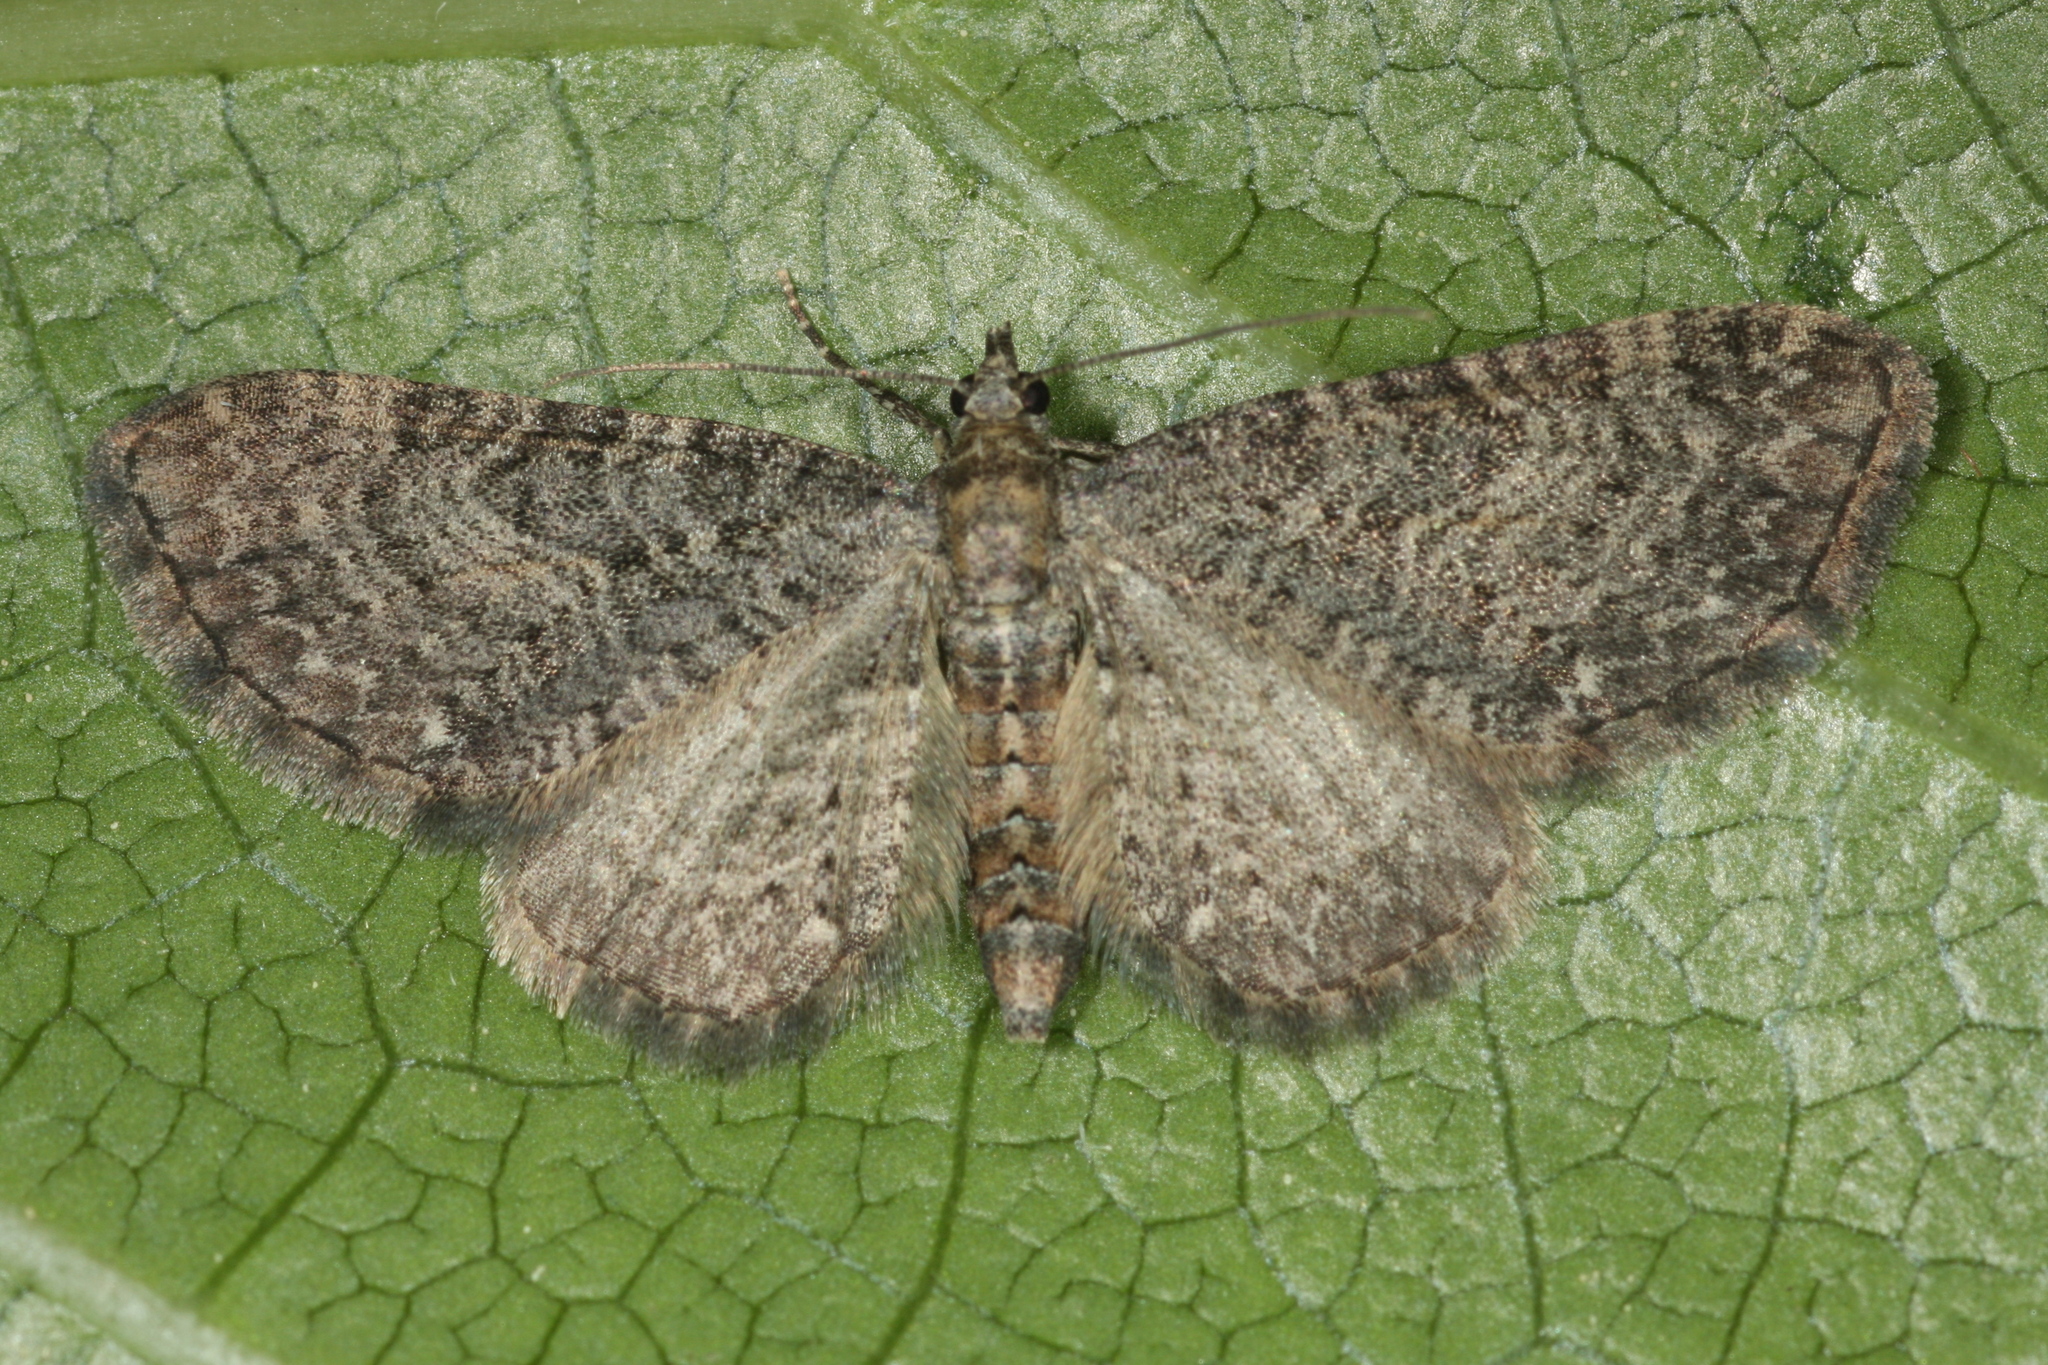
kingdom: Animalia
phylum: Arthropoda
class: Insecta
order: Lepidoptera
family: Geometridae
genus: Eupithecia
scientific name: Eupithecia subfuscata
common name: Grey pug
